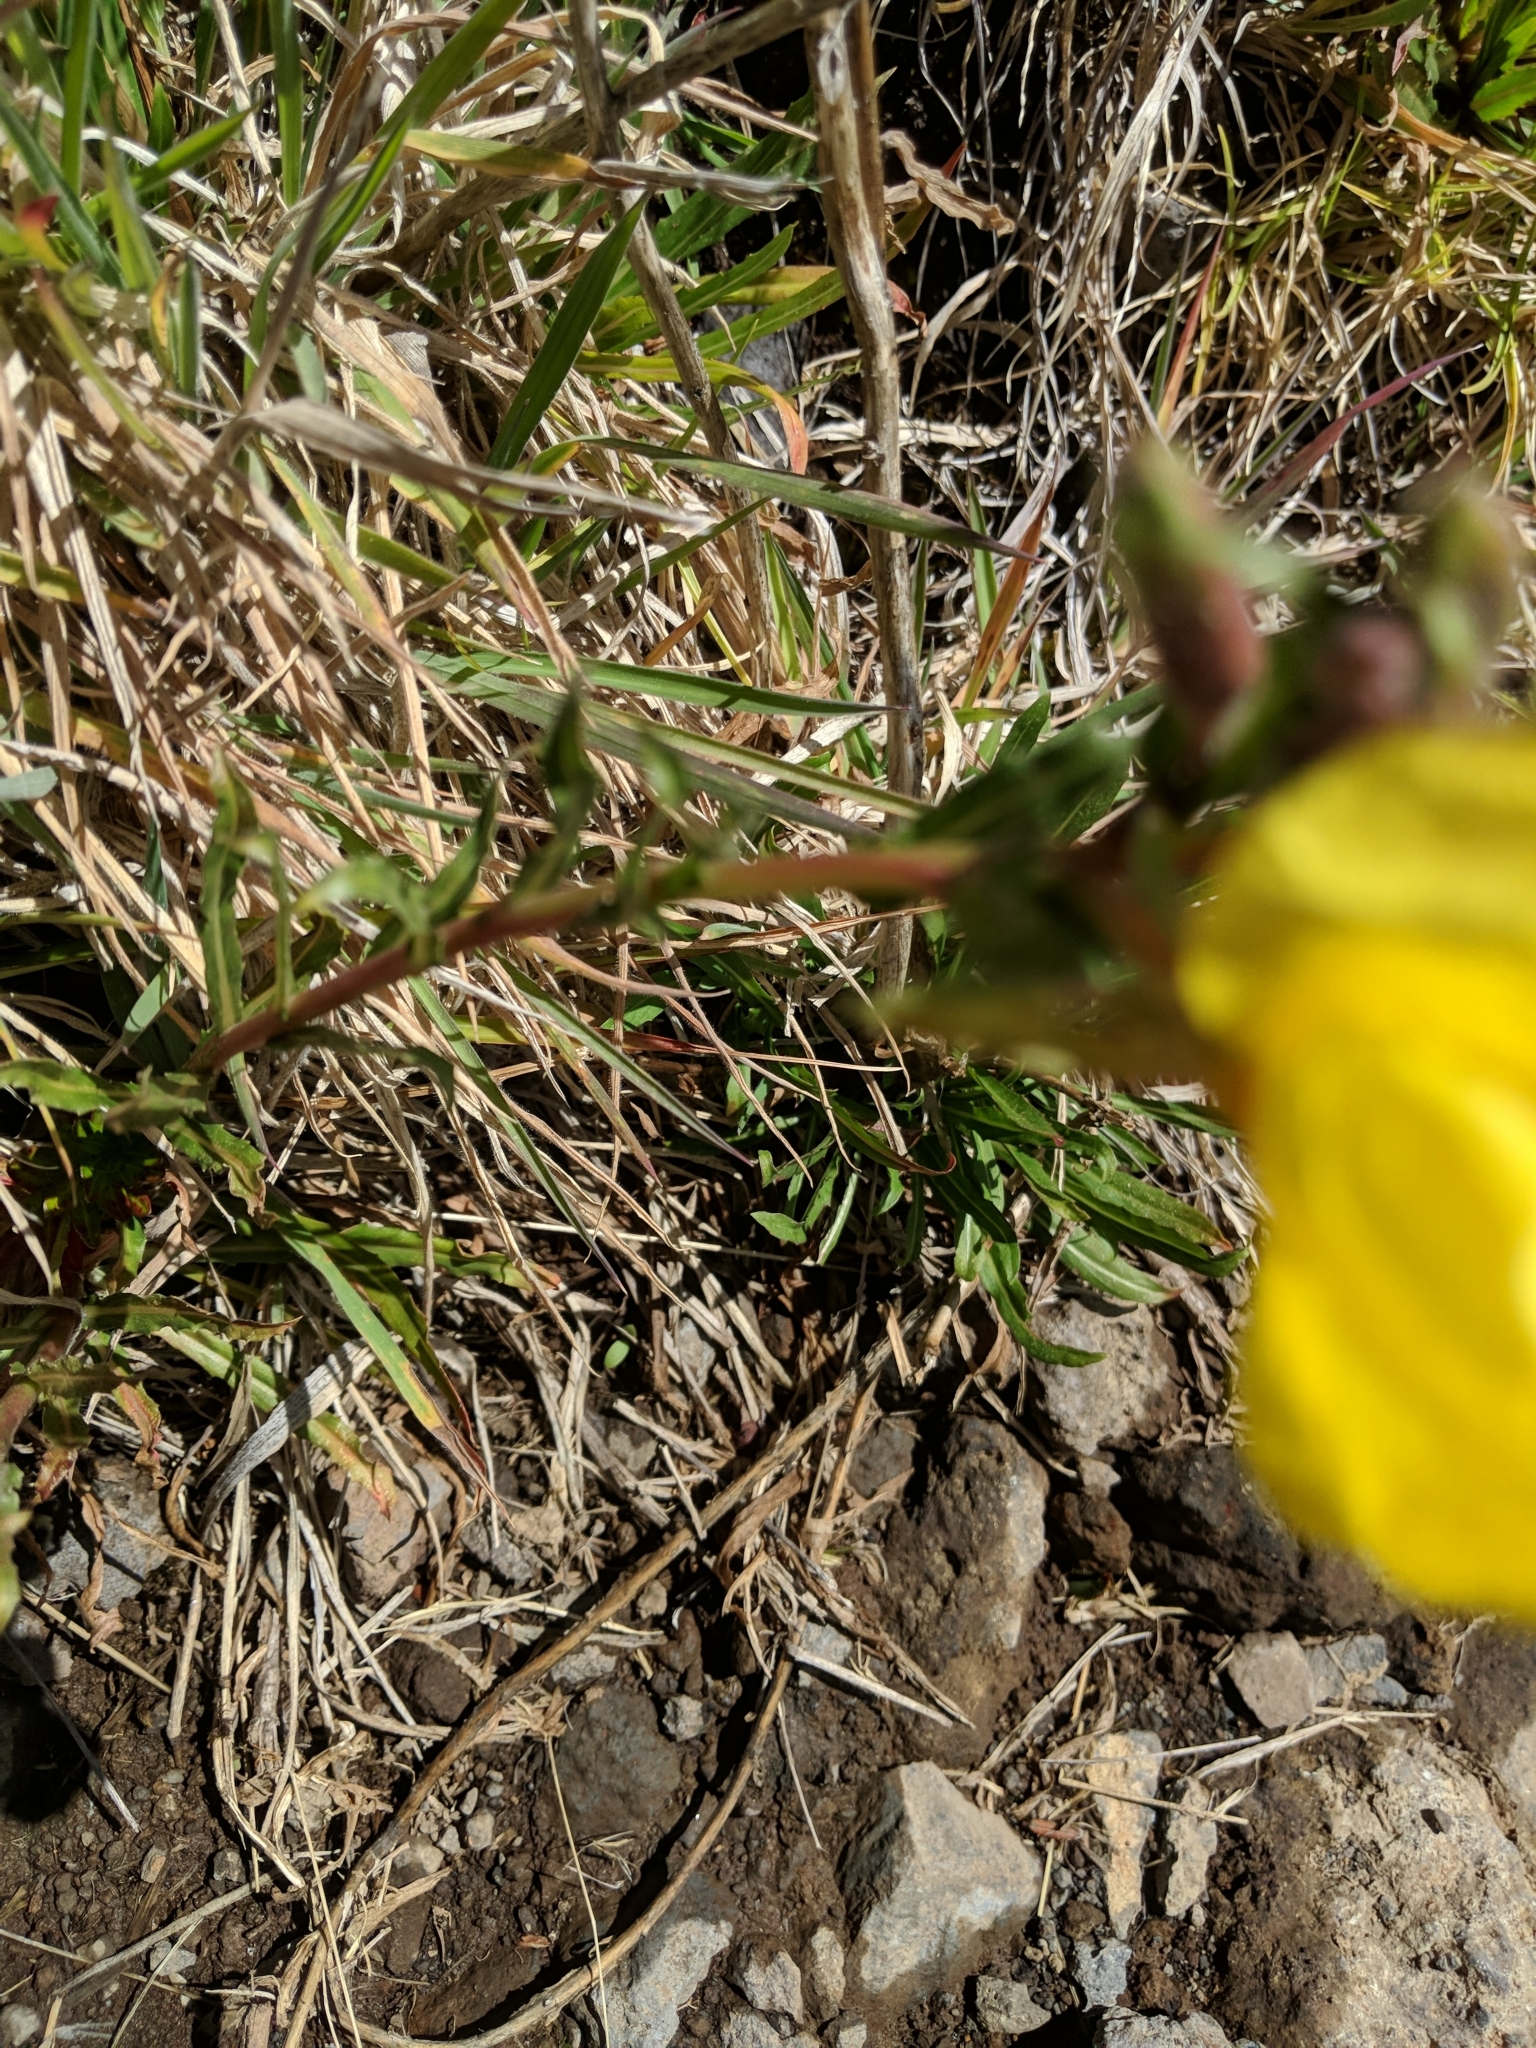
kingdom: Plantae
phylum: Tracheophyta
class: Magnoliopsida
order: Myrtales
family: Onagraceae
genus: Oenothera
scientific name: Oenothera stricta
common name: Fragrant evening-primrose
